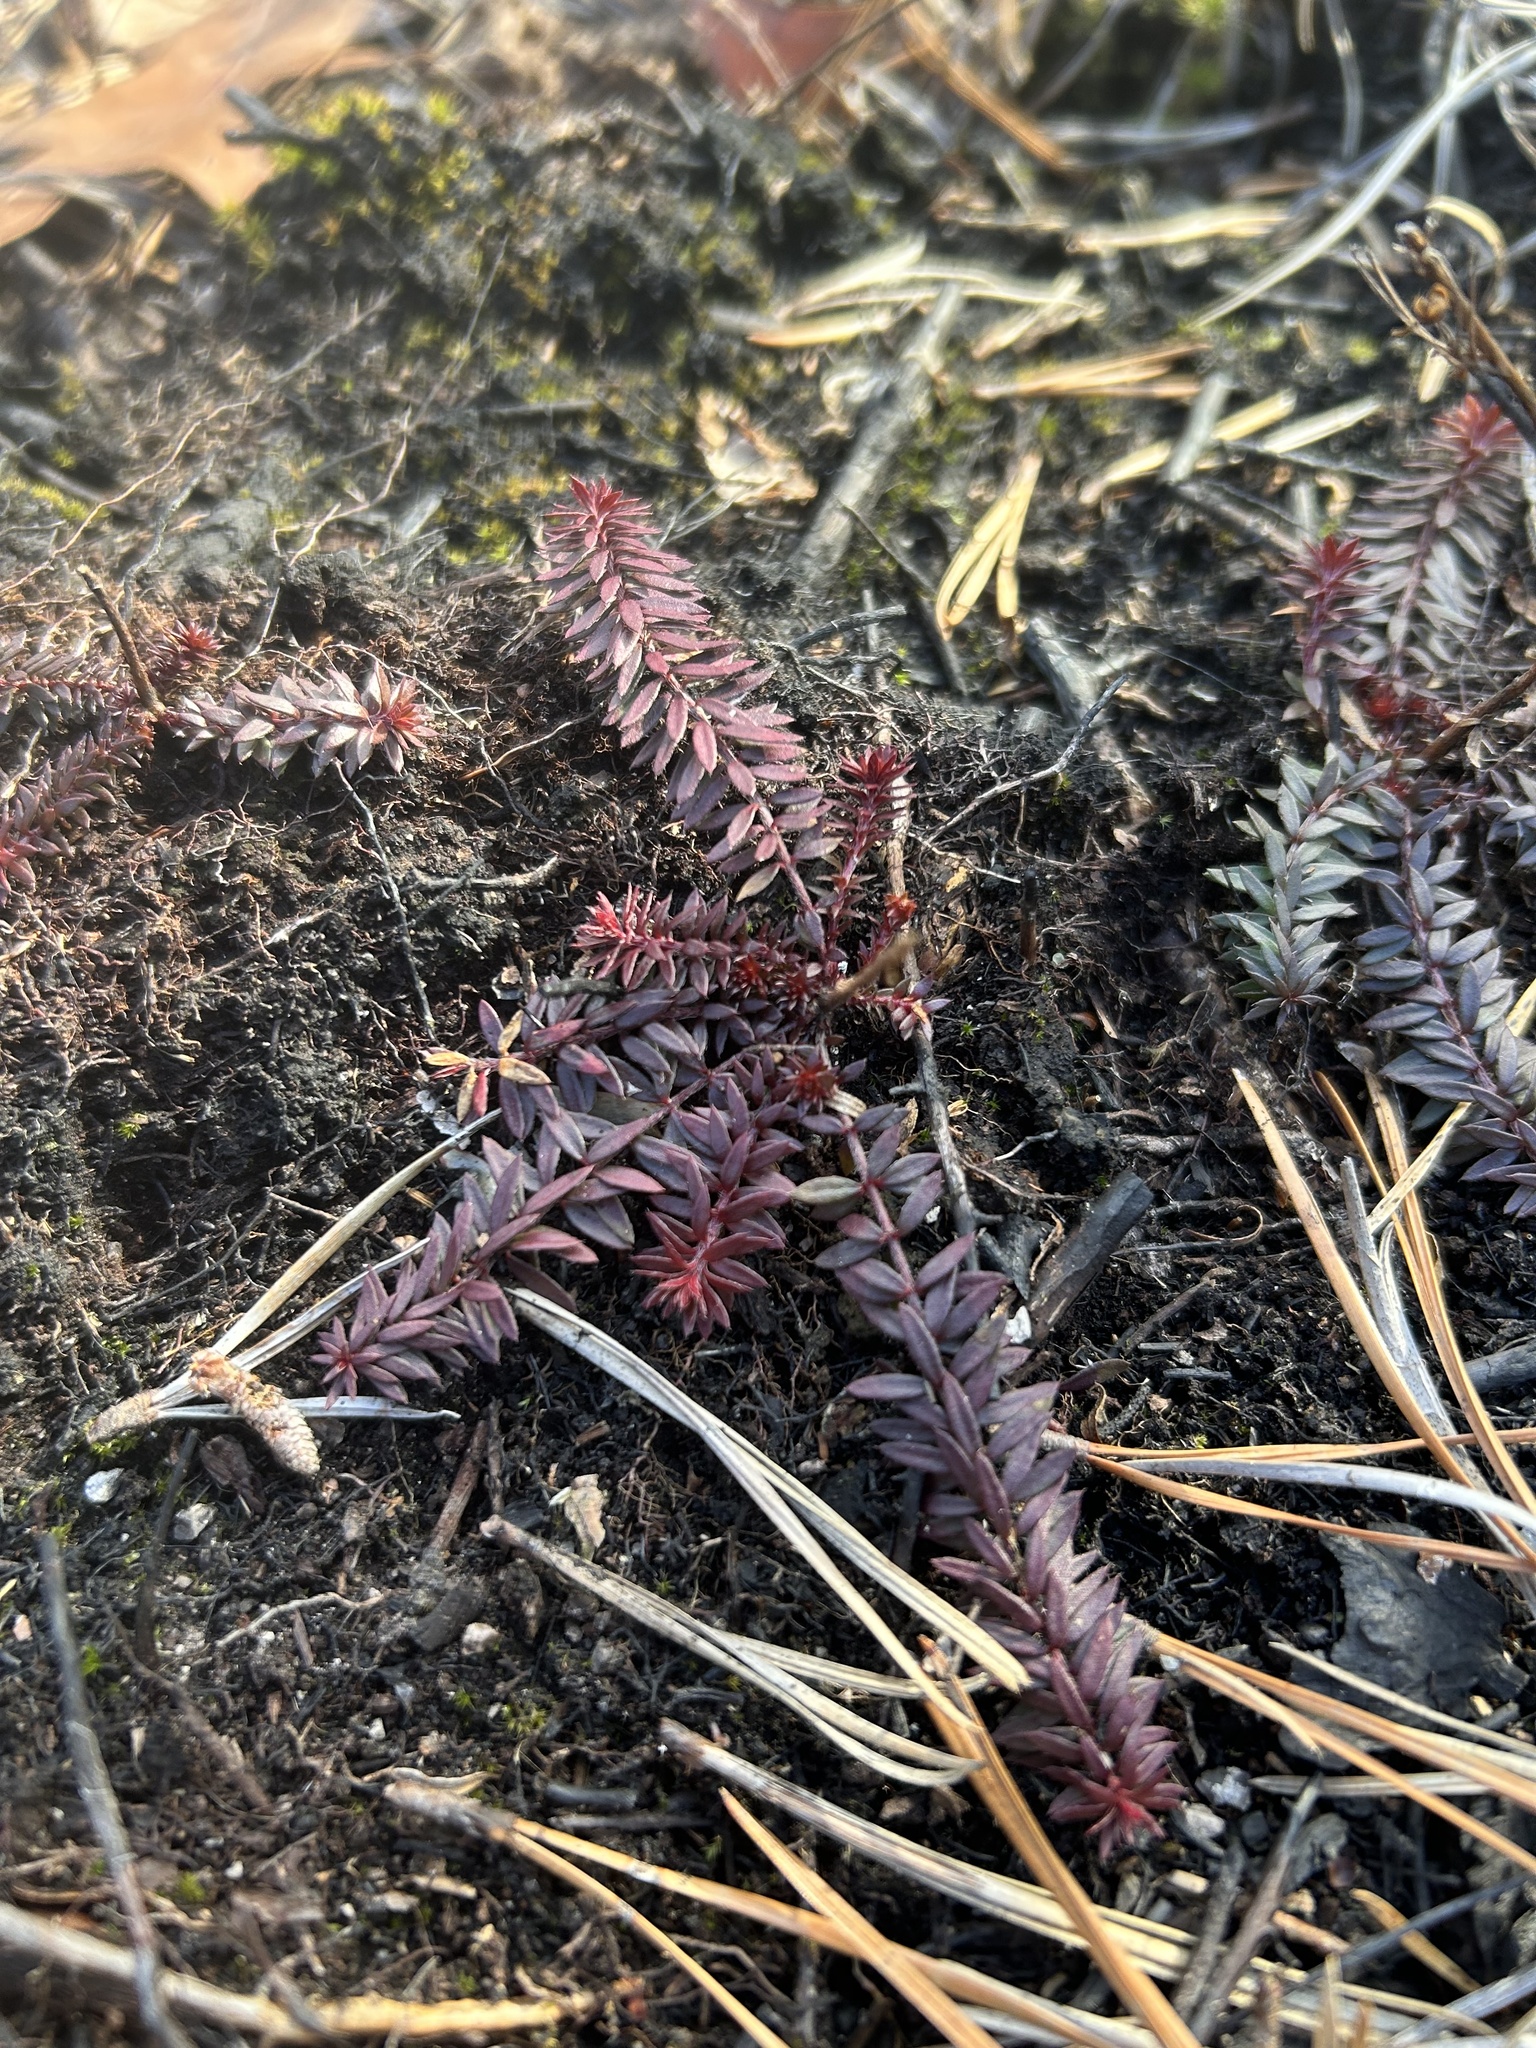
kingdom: Plantae
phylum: Tracheophyta
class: Magnoliopsida
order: Malvales
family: Cistaceae
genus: Lechea
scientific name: Lechea intermedia
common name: Intermediate pinweed
